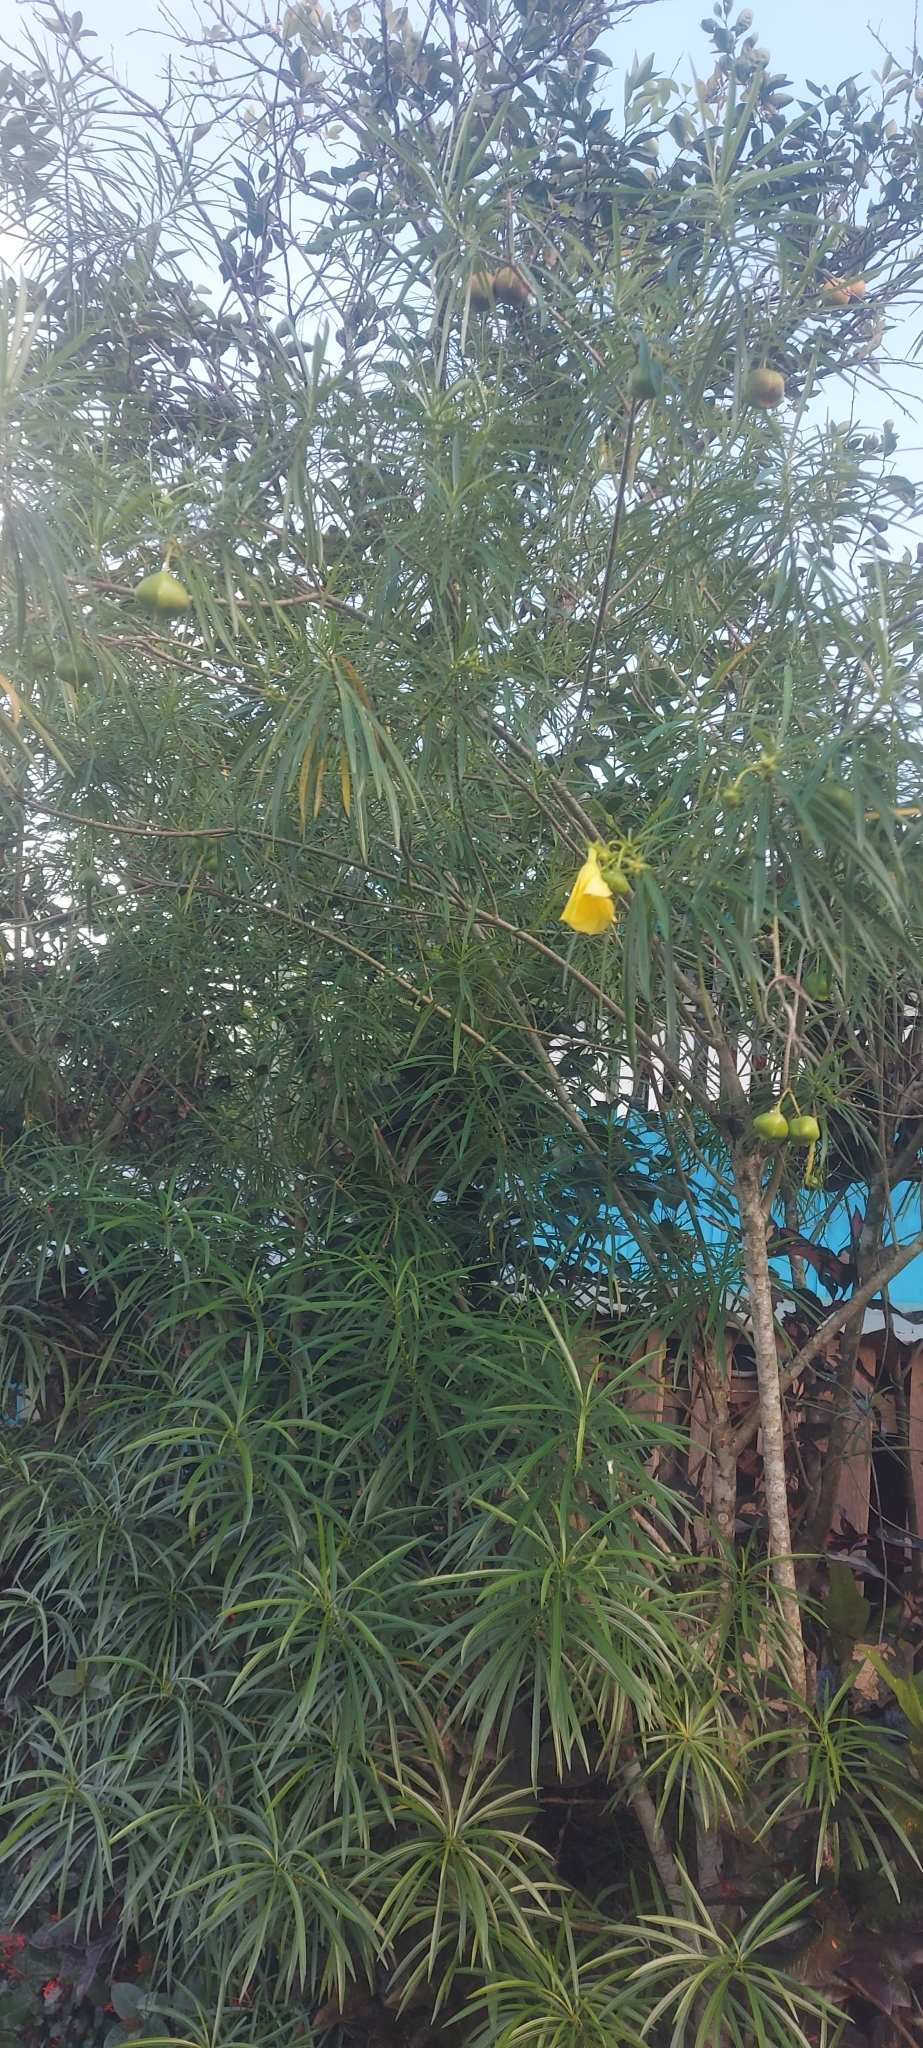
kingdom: Plantae
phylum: Tracheophyta
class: Magnoliopsida
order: Gentianales
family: Apocynaceae
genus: Cascabela
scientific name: Cascabela thevetia
